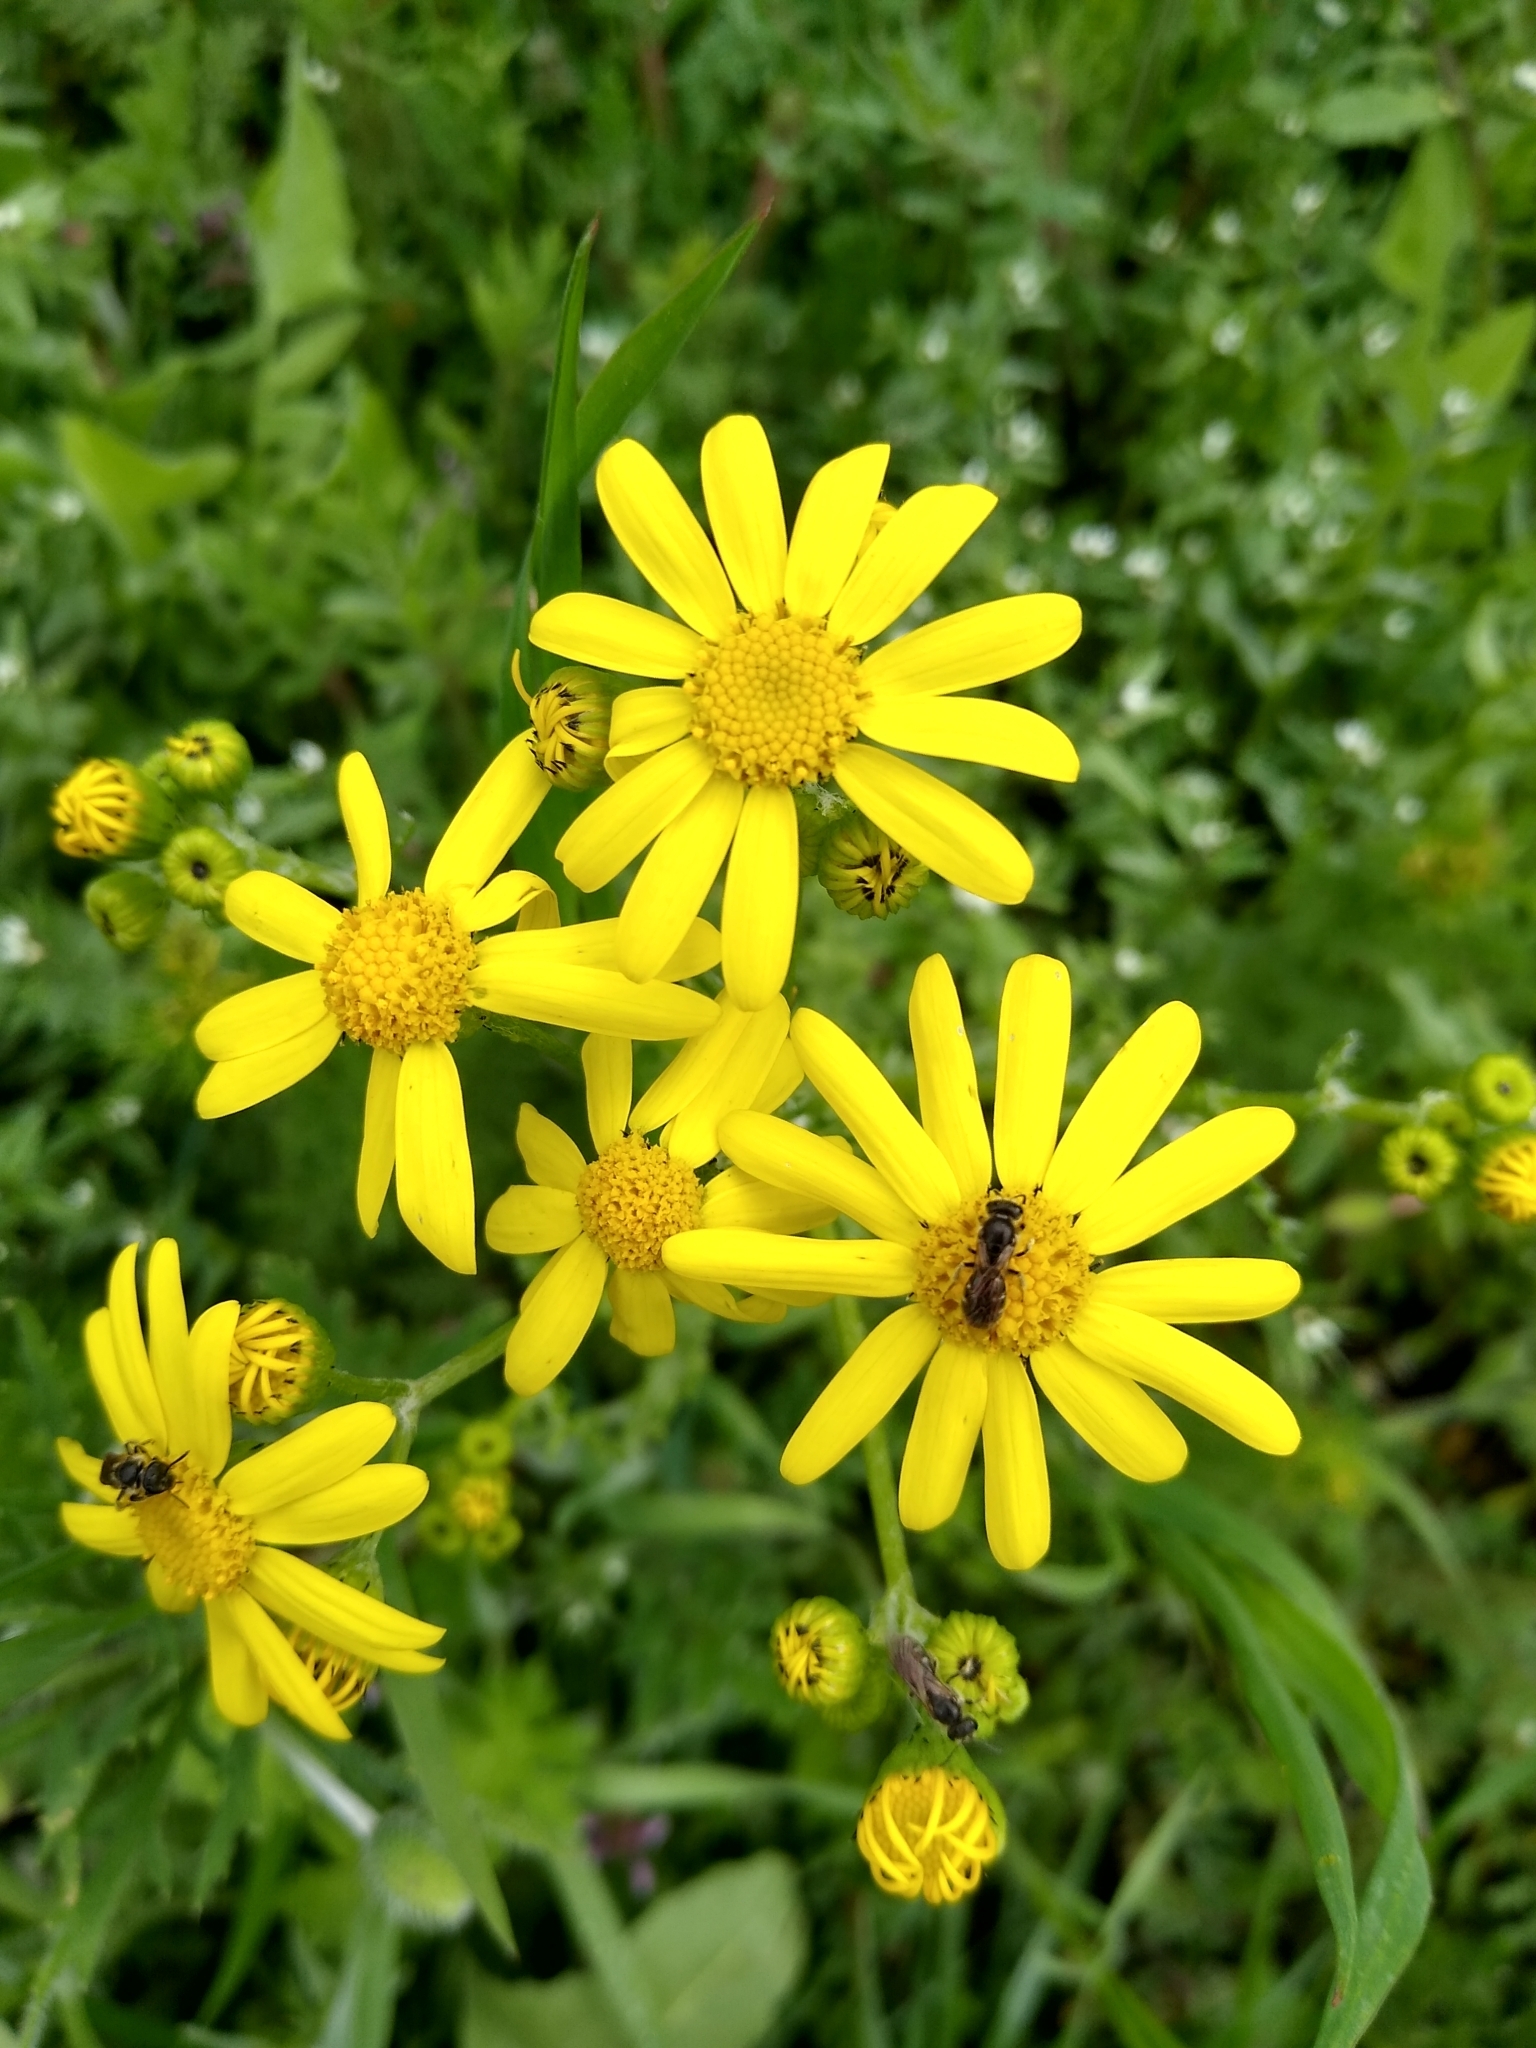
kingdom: Plantae
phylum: Tracheophyta
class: Magnoliopsida
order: Asterales
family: Asteraceae
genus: Senecio
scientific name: Senecio vernalis
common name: Eastern groundsel
